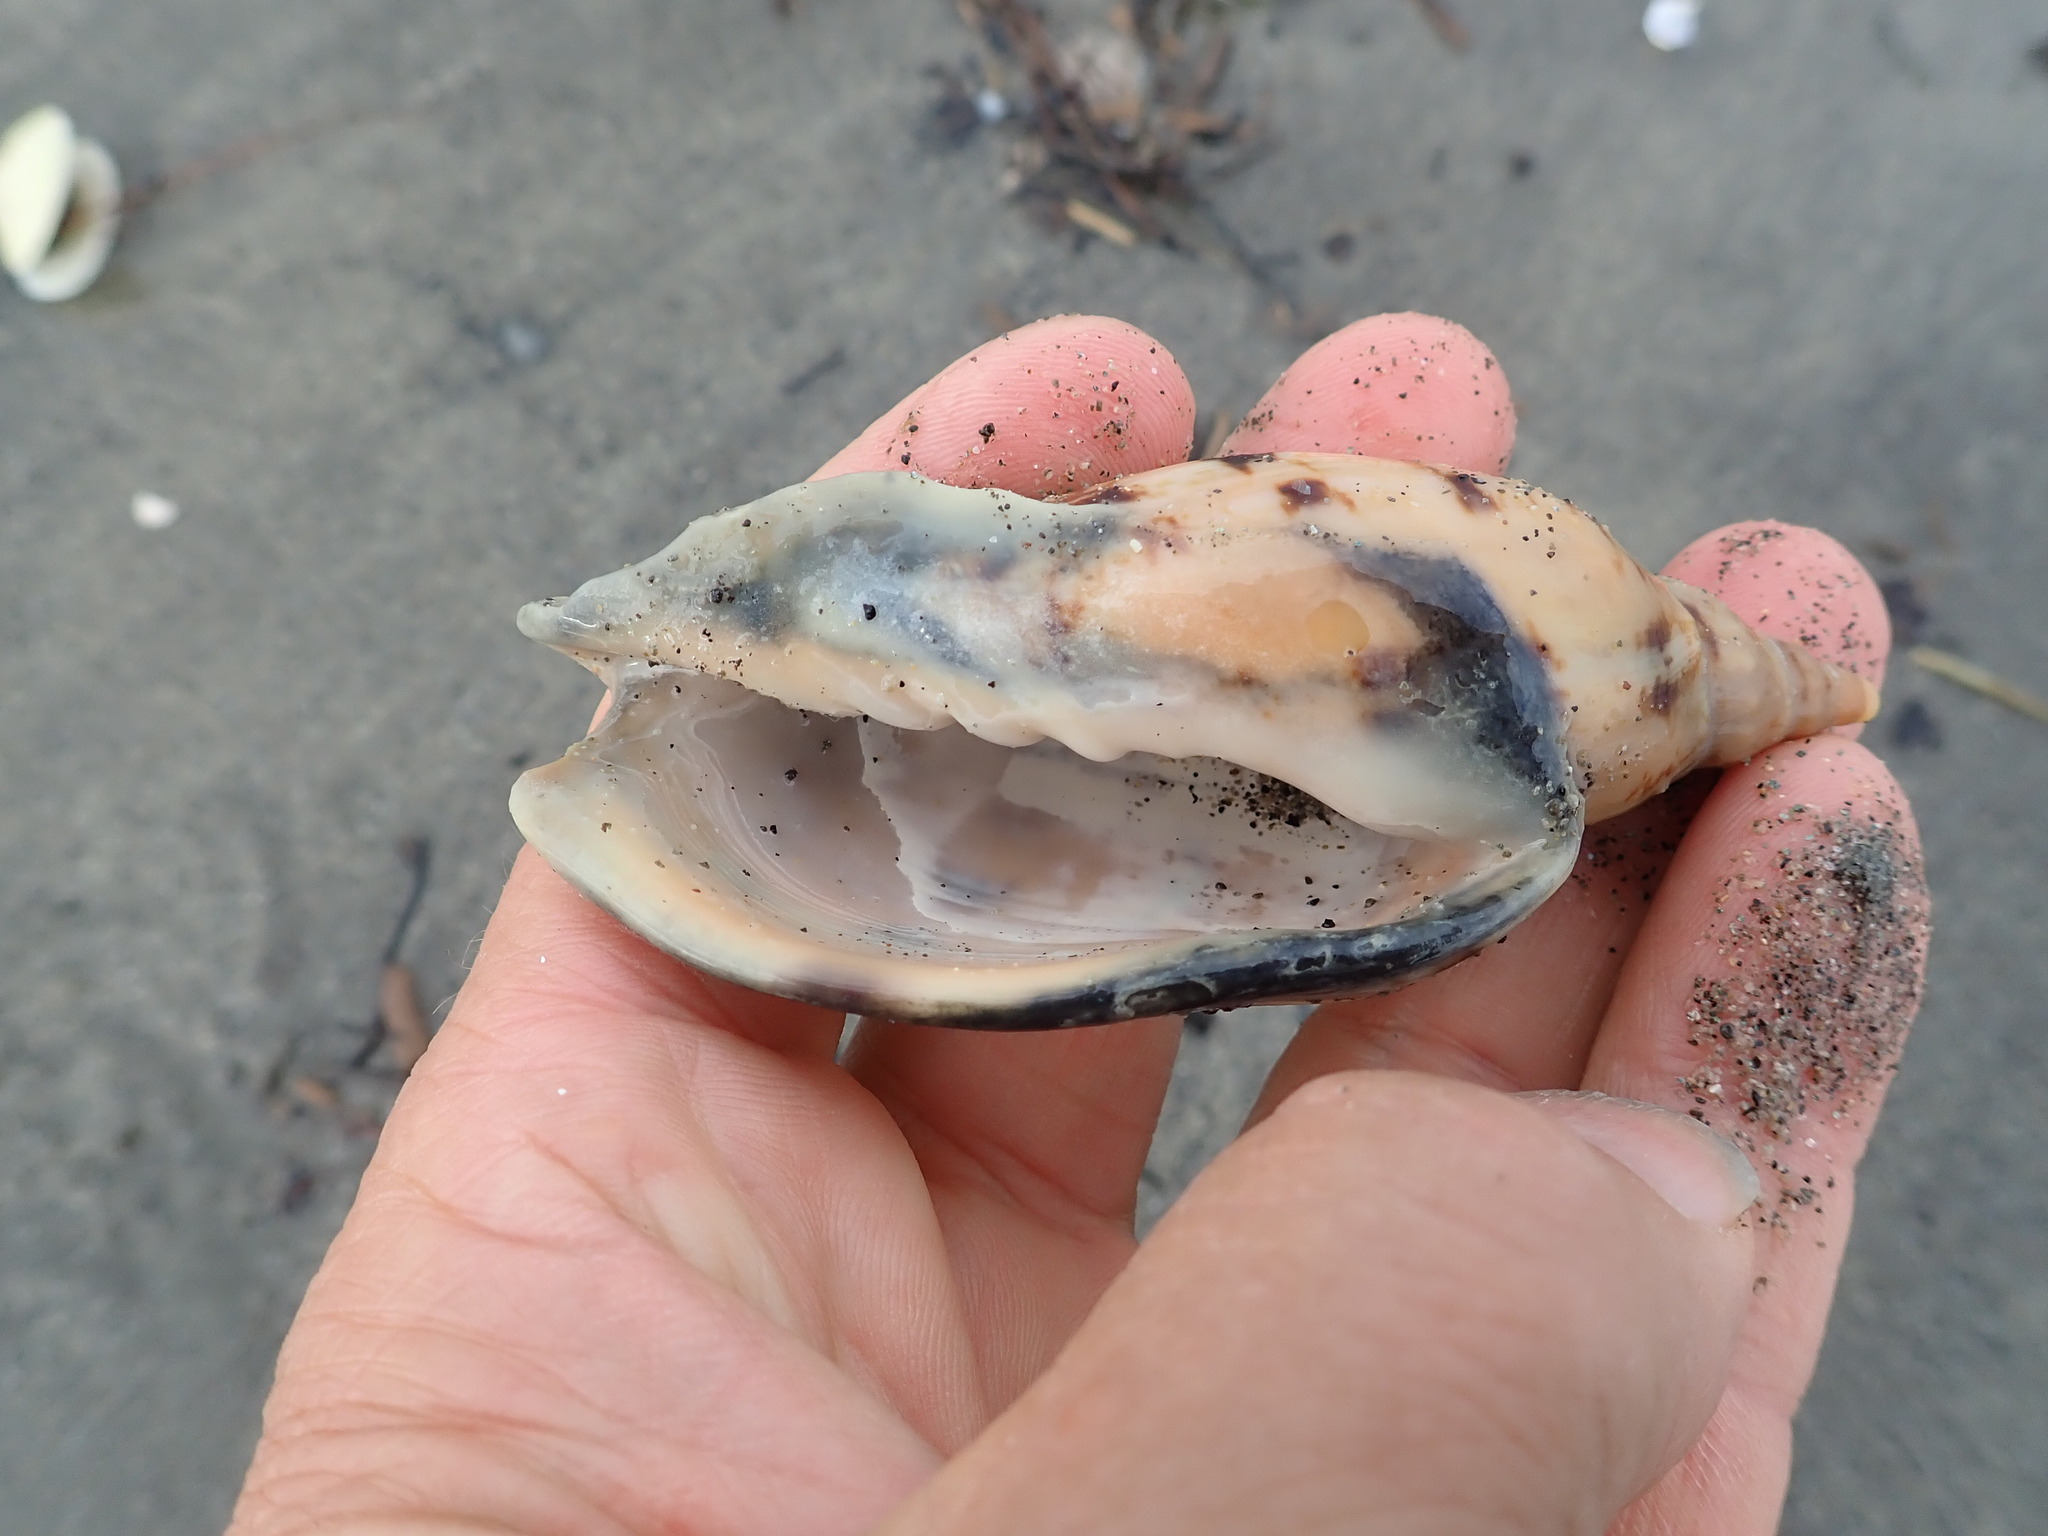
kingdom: Animalia
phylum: Mollusca
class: Gastropoda
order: Neogastropoda
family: Volutidae
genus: Alcithoe
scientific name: Alcithoe arabica
